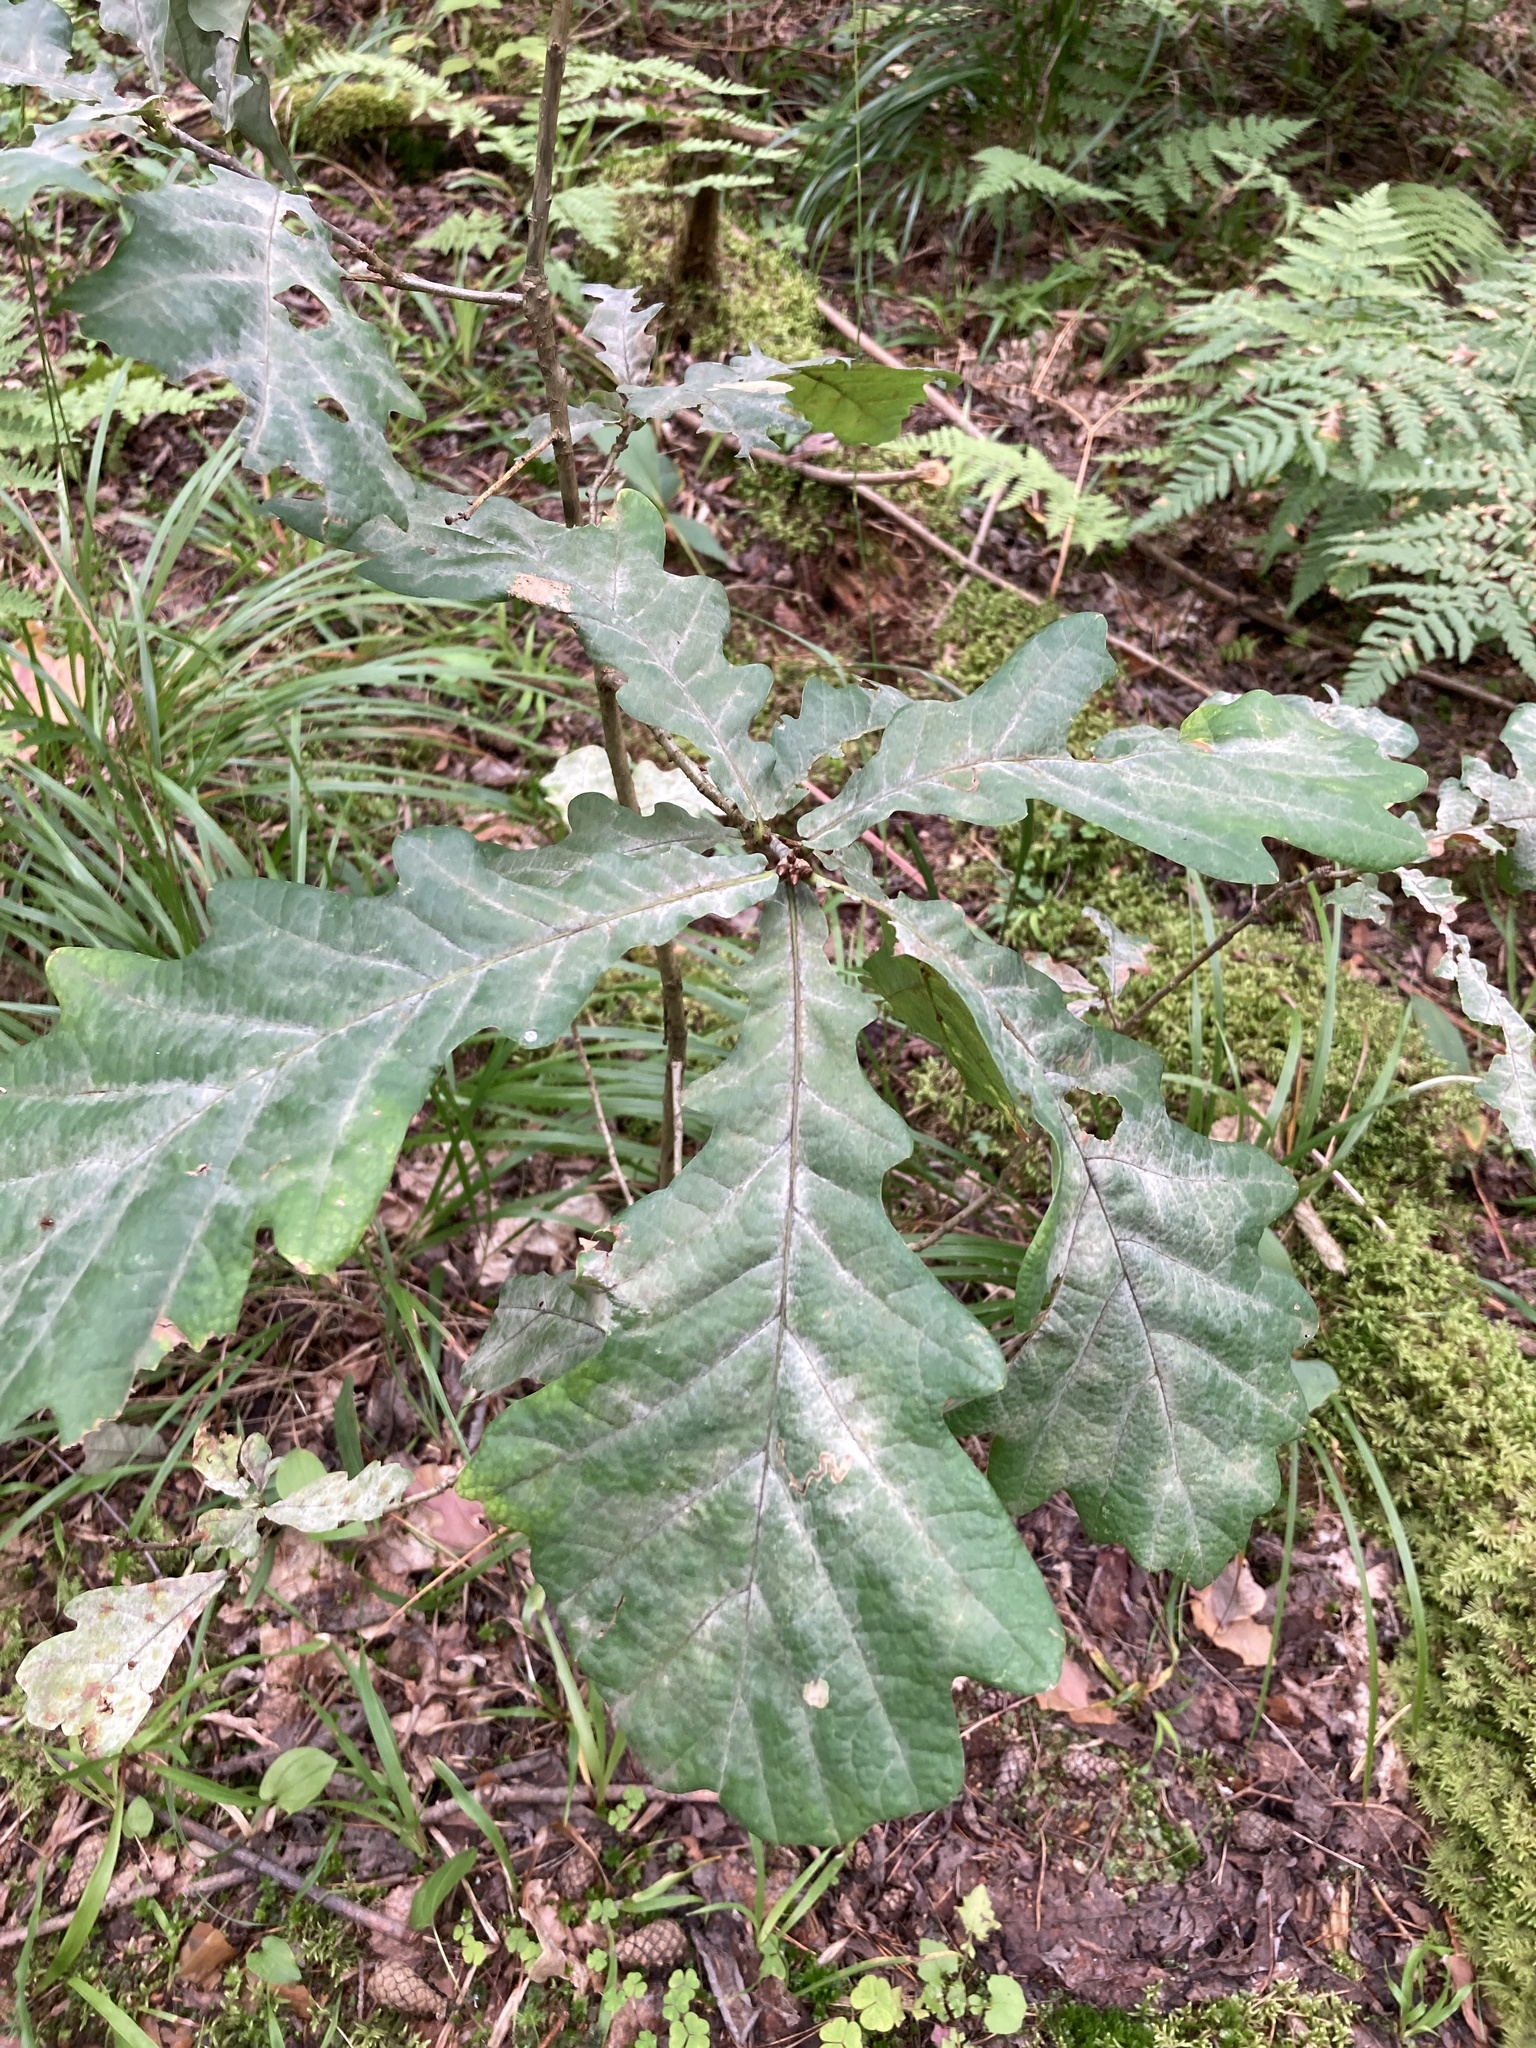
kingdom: Plantae
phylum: Tracheophyta
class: Magnoliopsida
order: Fagales
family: Fagaceae
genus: Quercus
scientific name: Quercus robur
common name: Pedunculate oak
